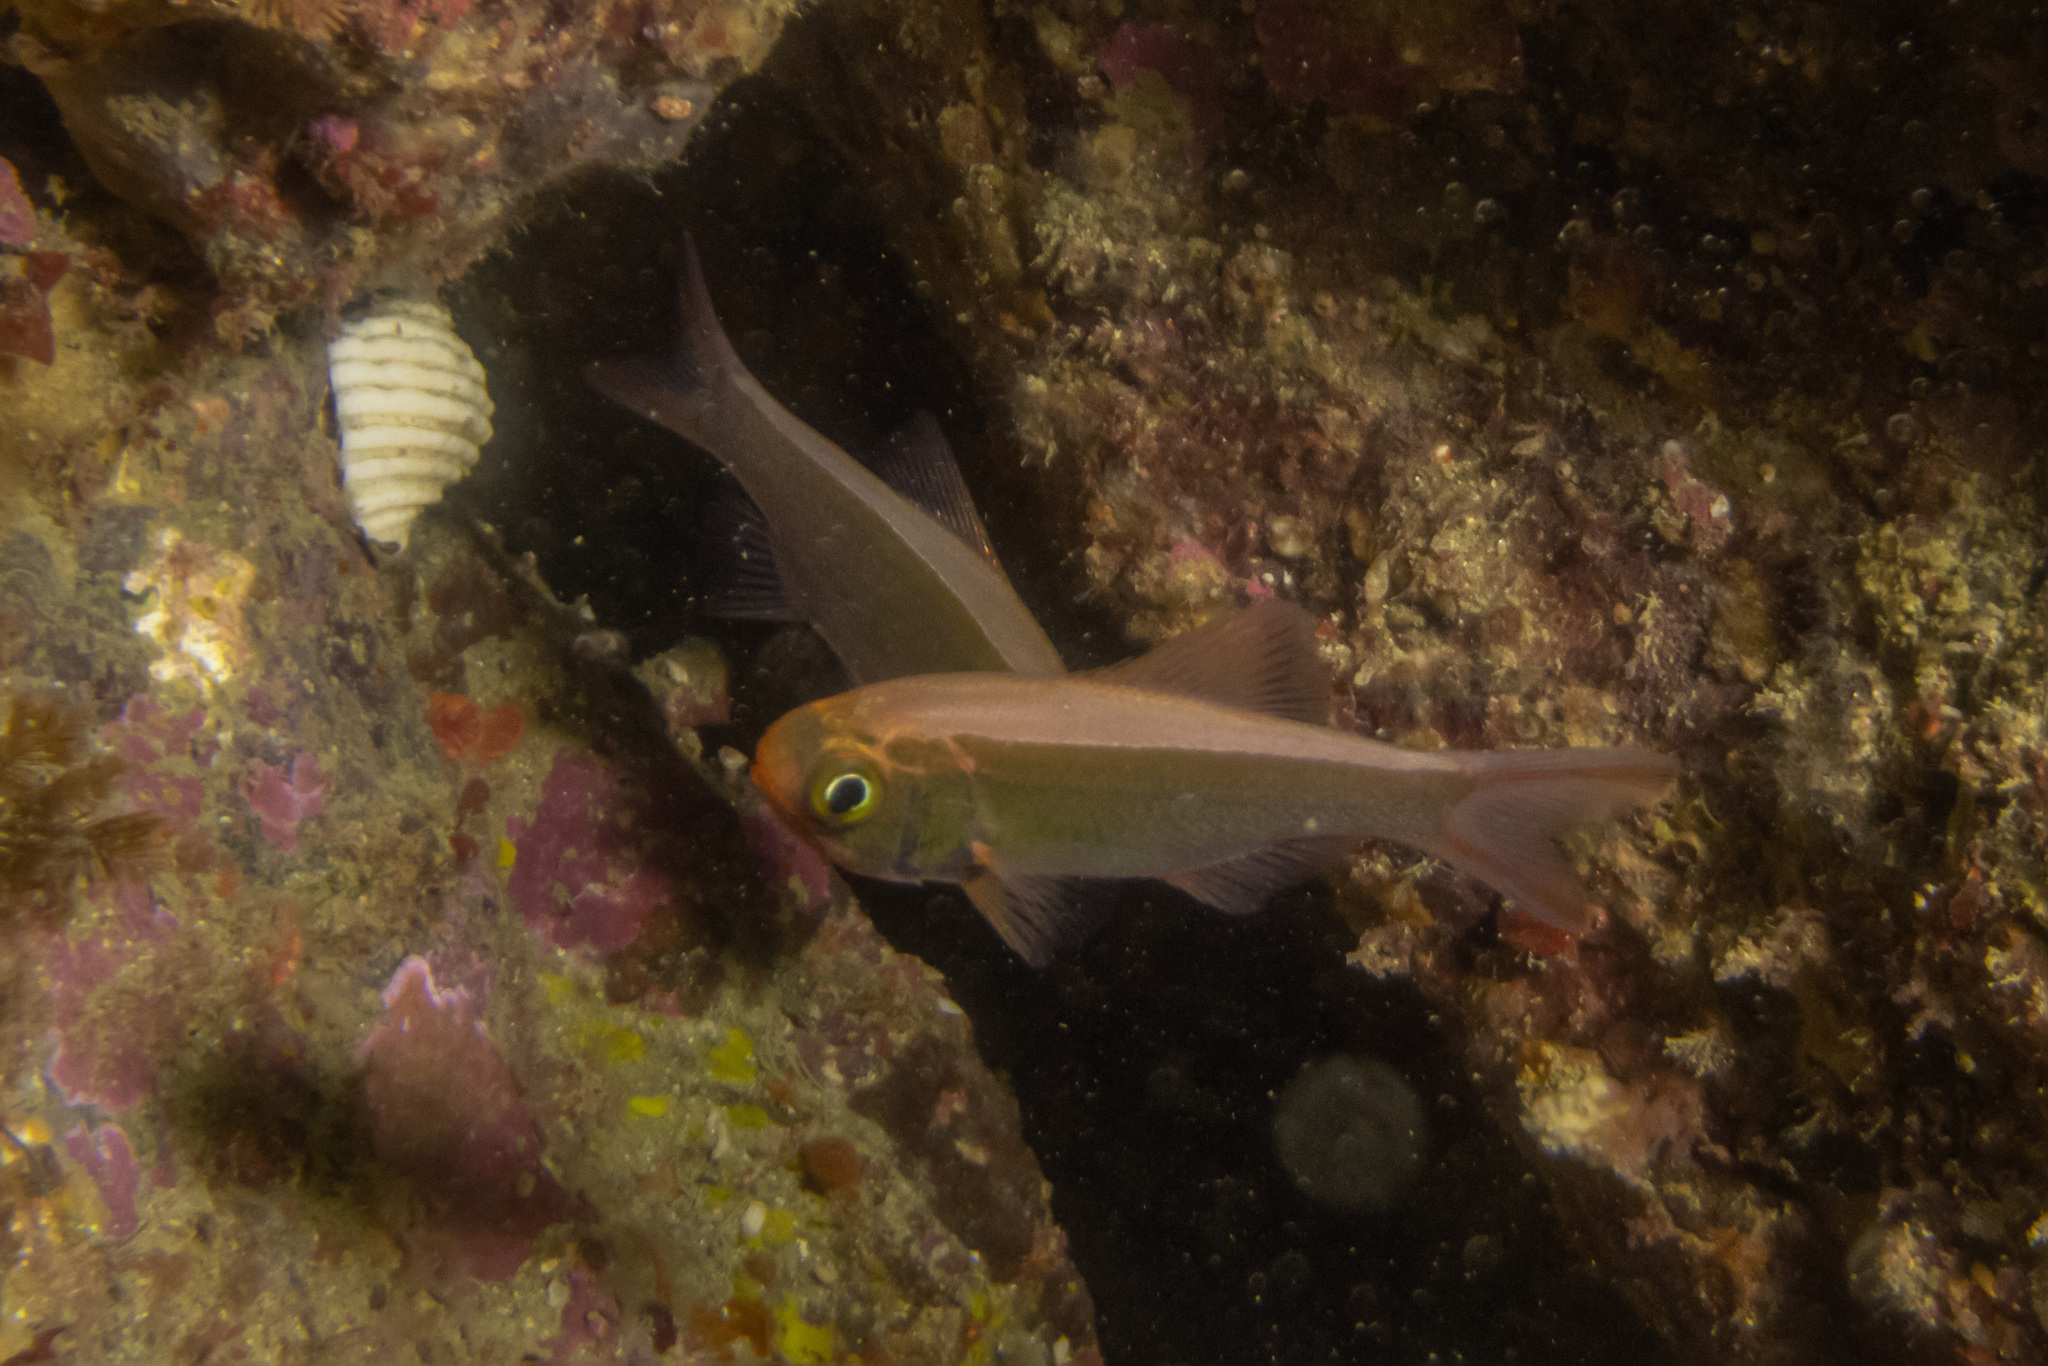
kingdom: Animalia
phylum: Chordata
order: Beryciformes
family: Trachichthyidae
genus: Optivus
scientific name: Optivus elongatus
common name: Slender roughy
